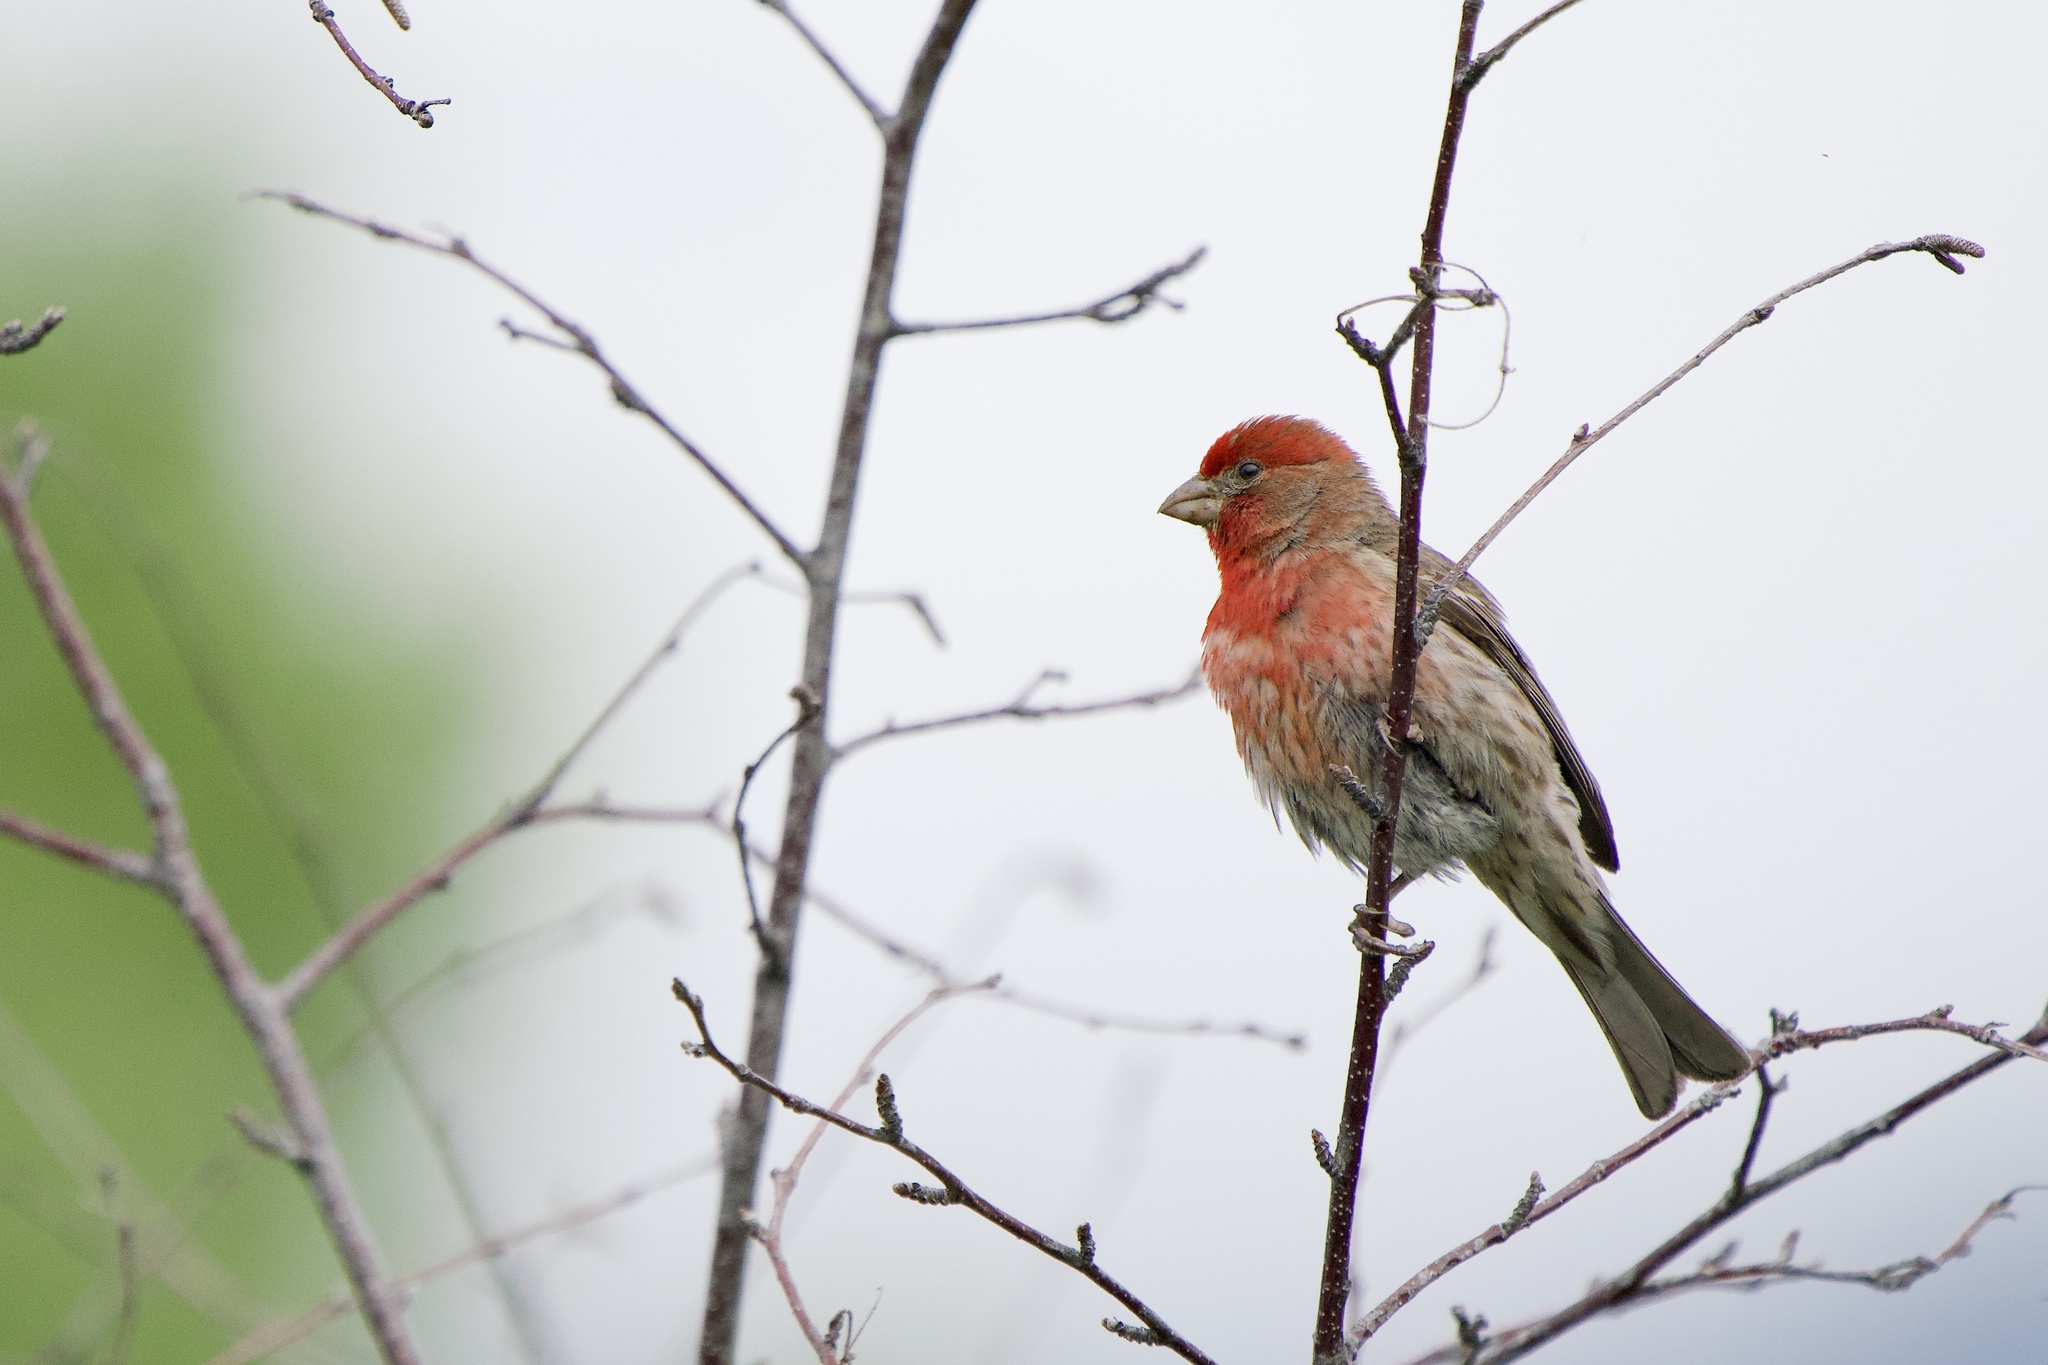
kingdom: Animalia
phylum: Chordata
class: Aves
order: Passeriformes
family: Fringillidae
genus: Haemorhous
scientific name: Haemorhous mexicanus
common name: House finch
